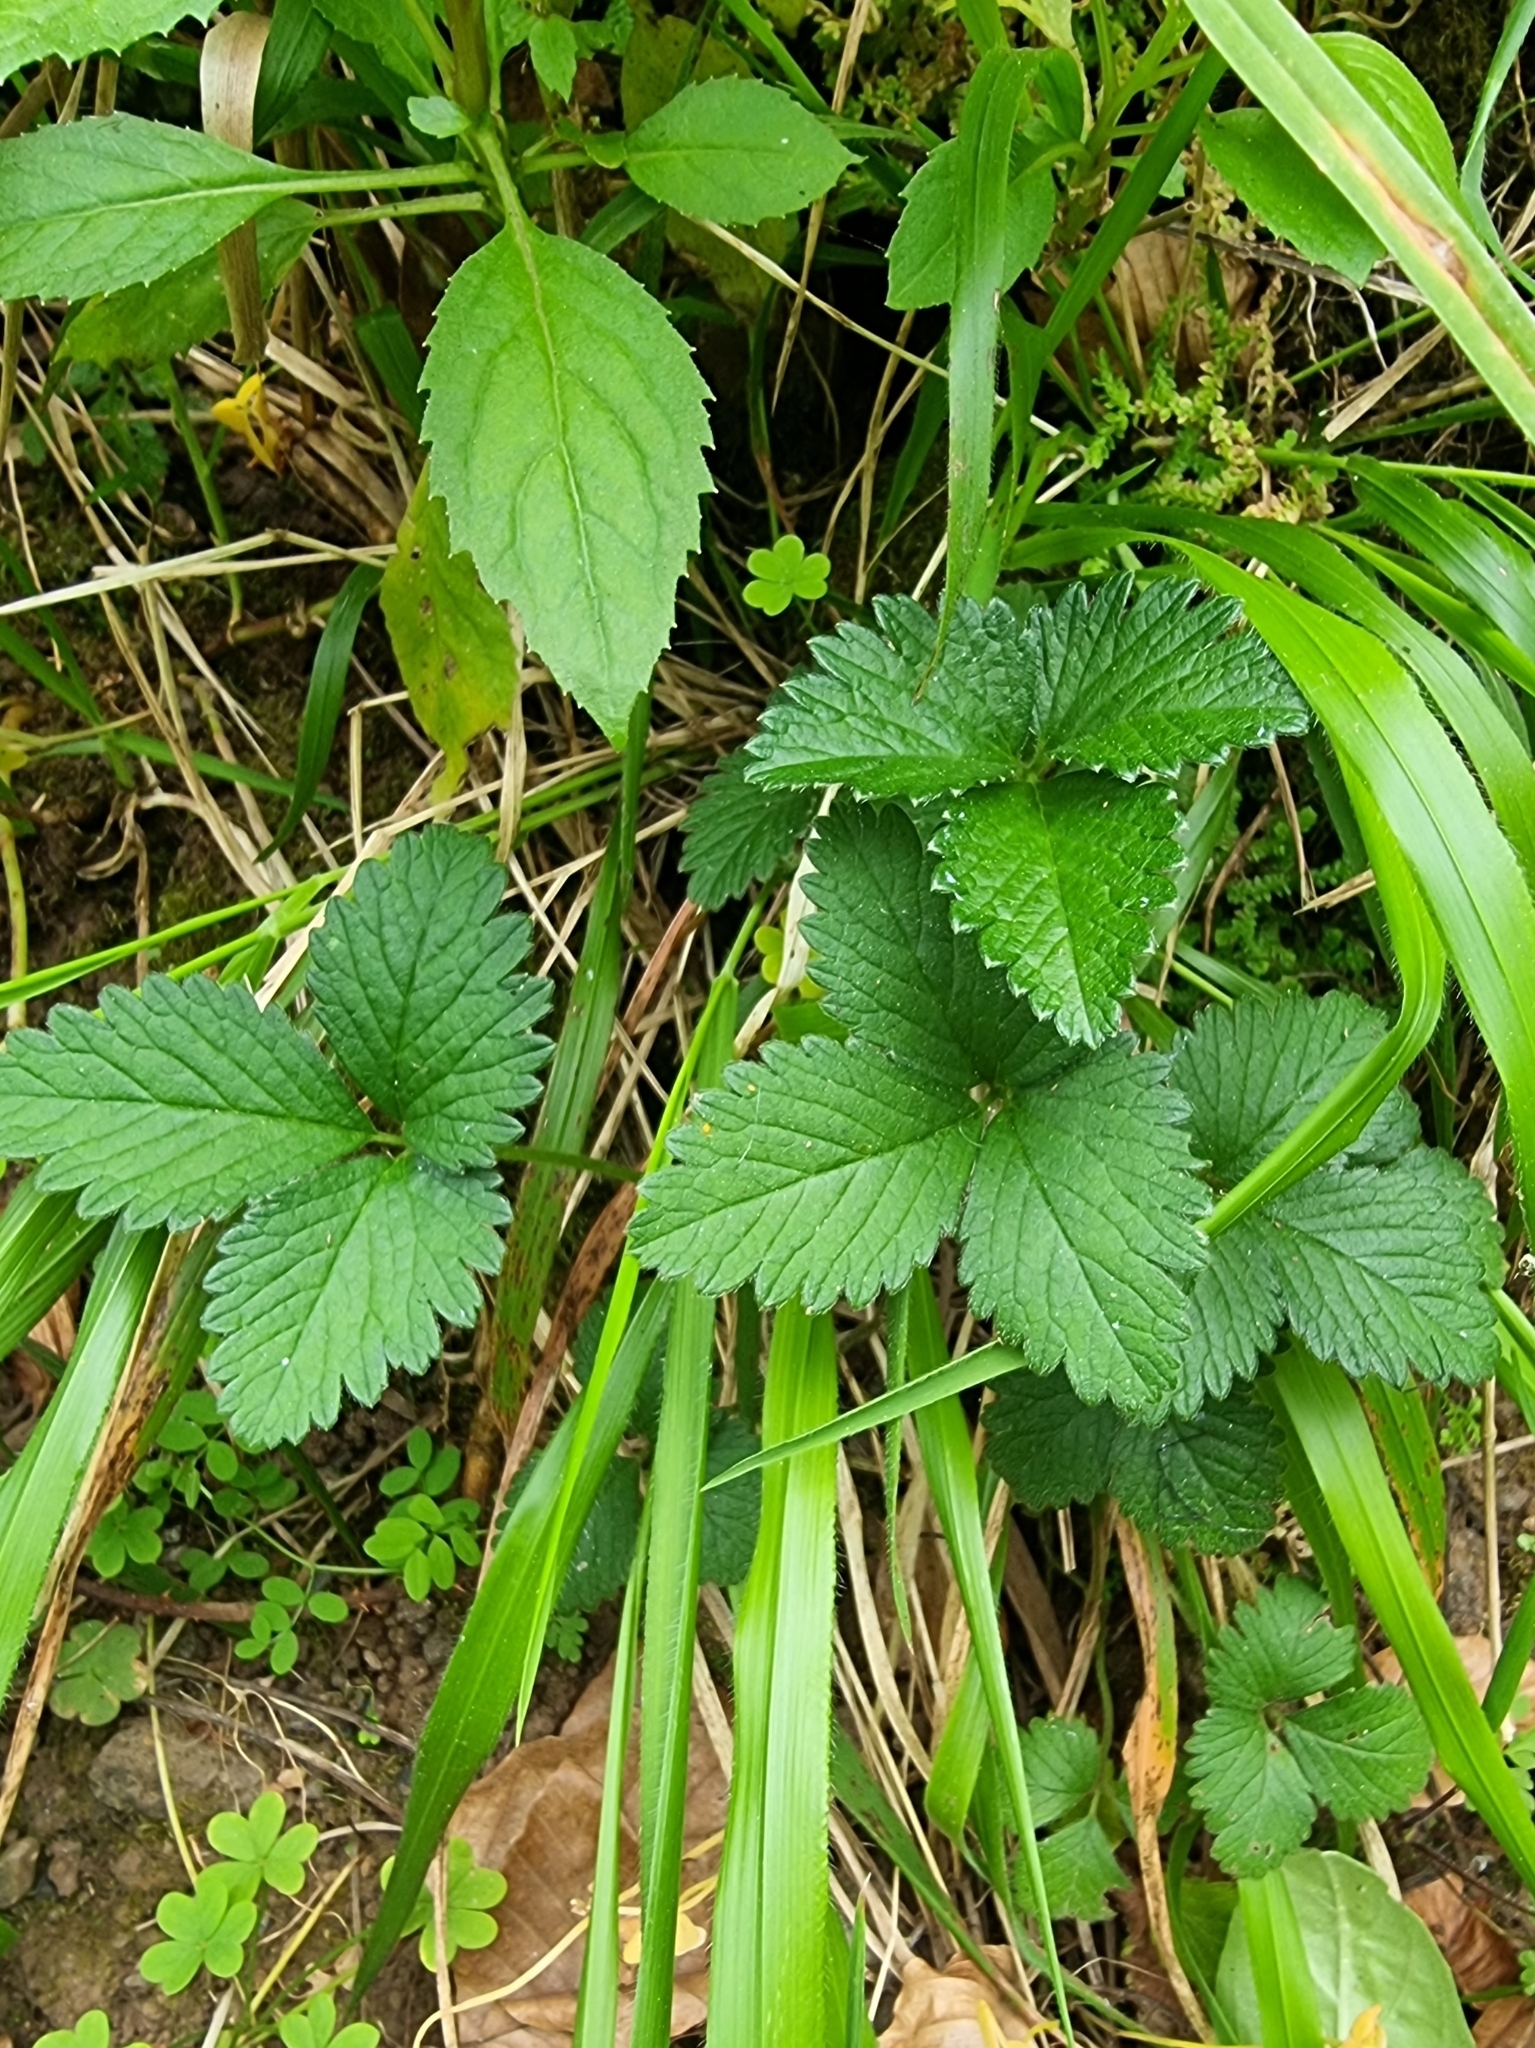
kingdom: Plantae
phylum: Tracheophyta
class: Magnoliopsida
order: Rosales
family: Rosaceae
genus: Potentilla
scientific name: Potentilla indica
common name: Yellow-flowered strawberry
